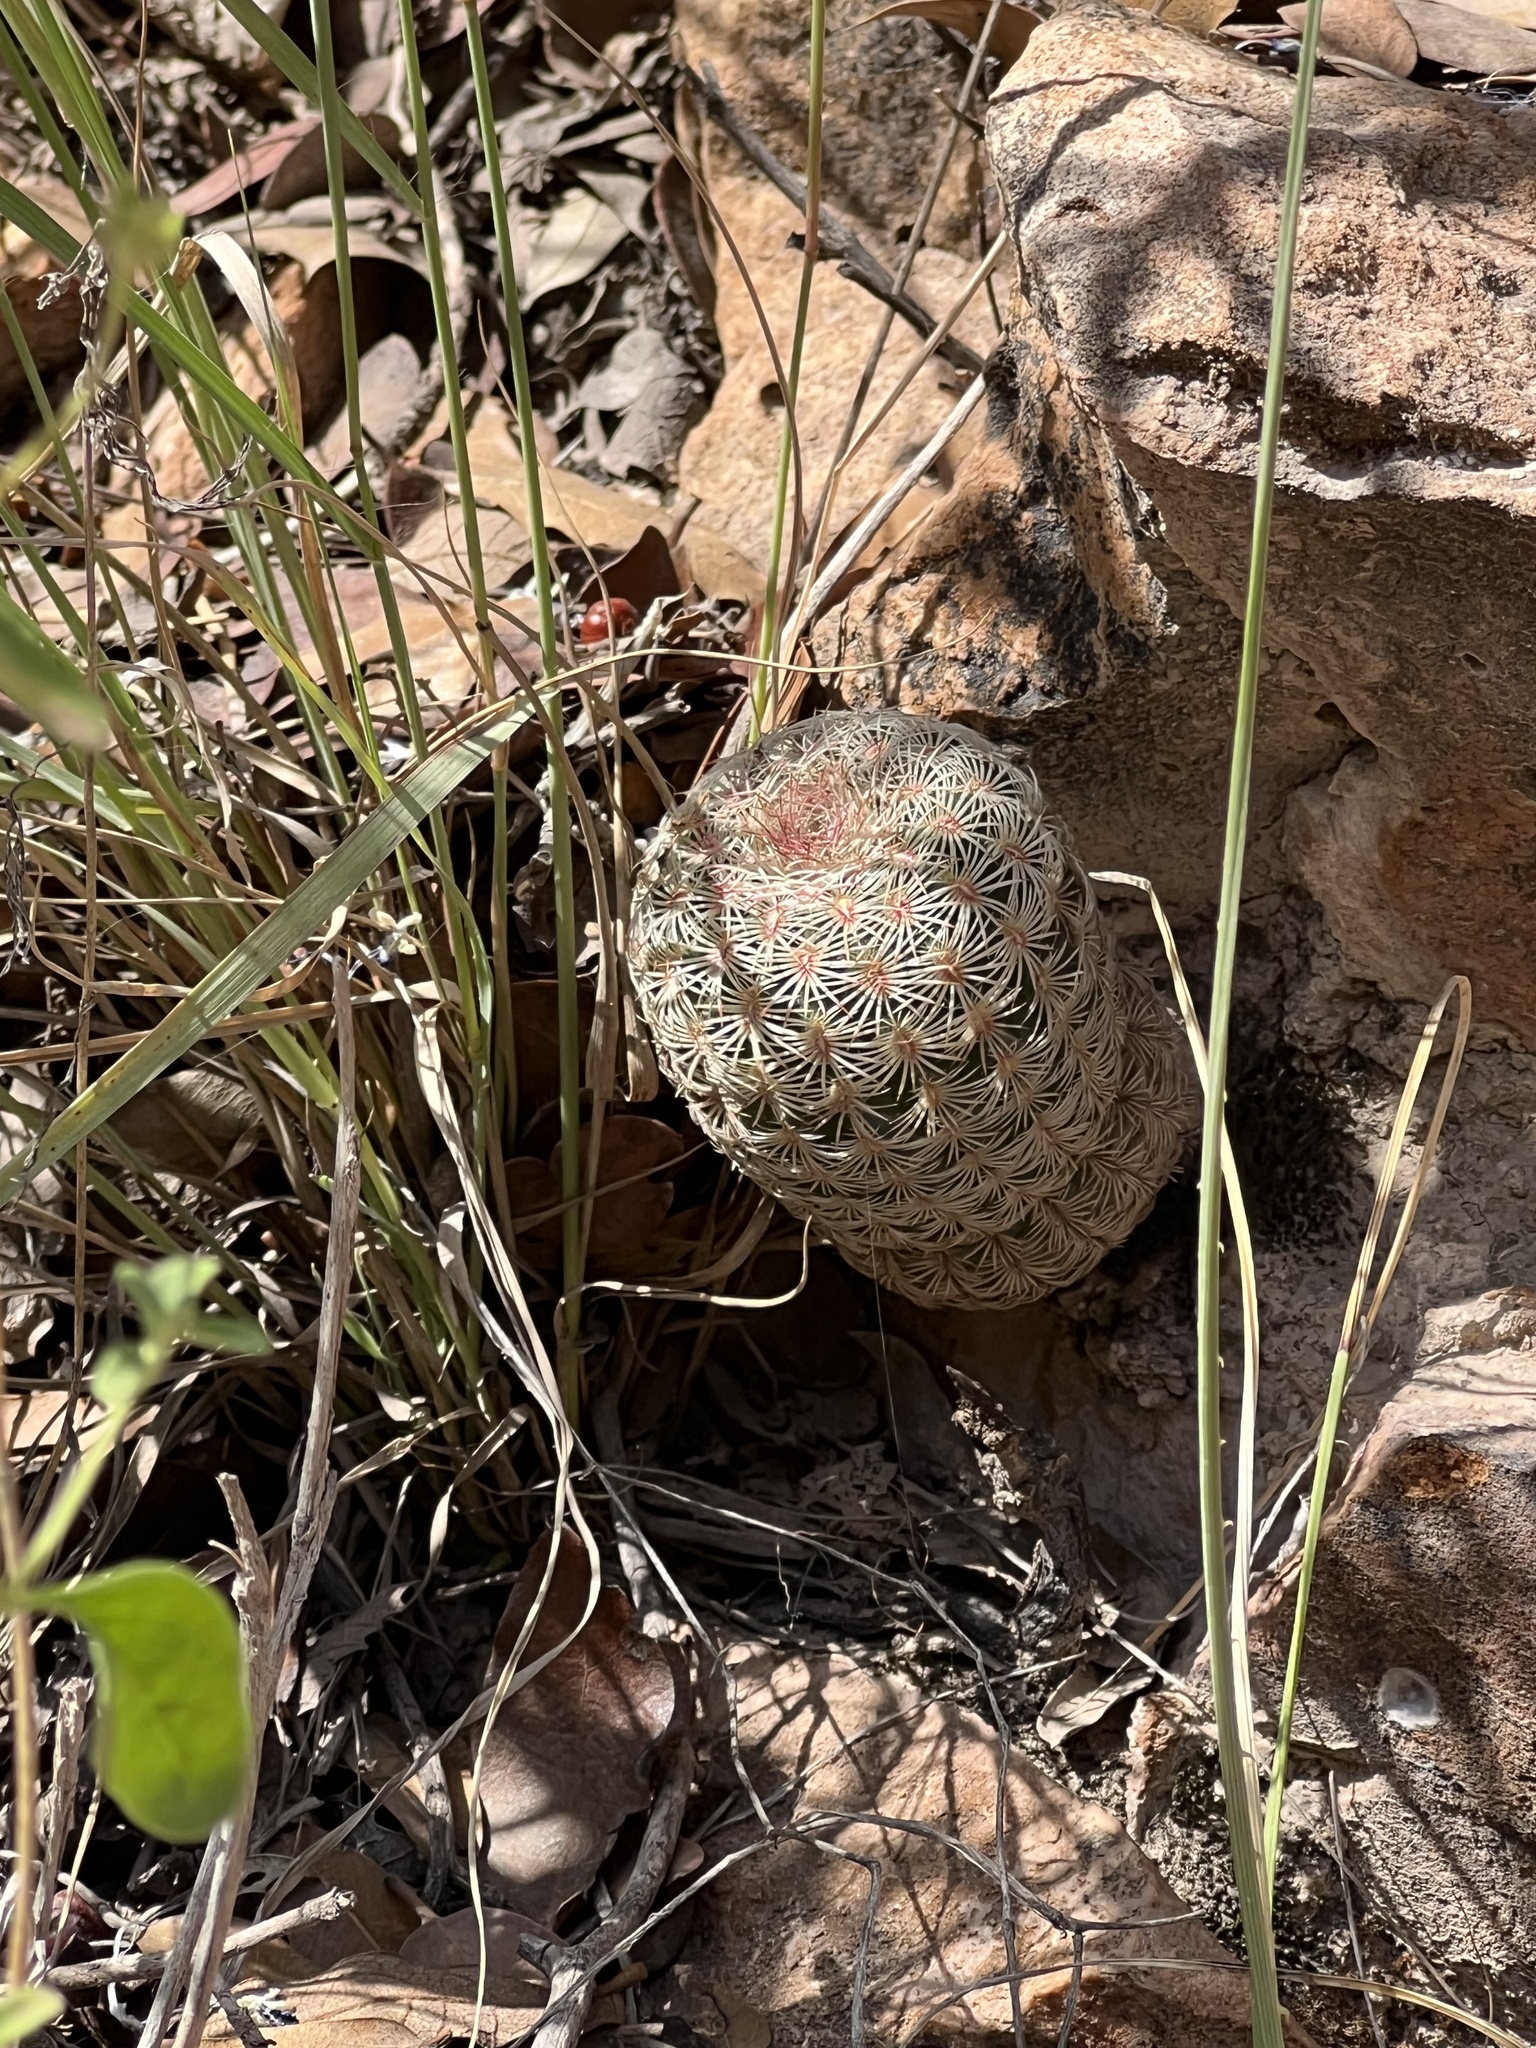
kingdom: Plantae
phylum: Tracheophyta
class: Magnoliopsida
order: Caryophyllales
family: Cactaceae
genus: Echinocereus
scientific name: Echinocereus rigidissimus
